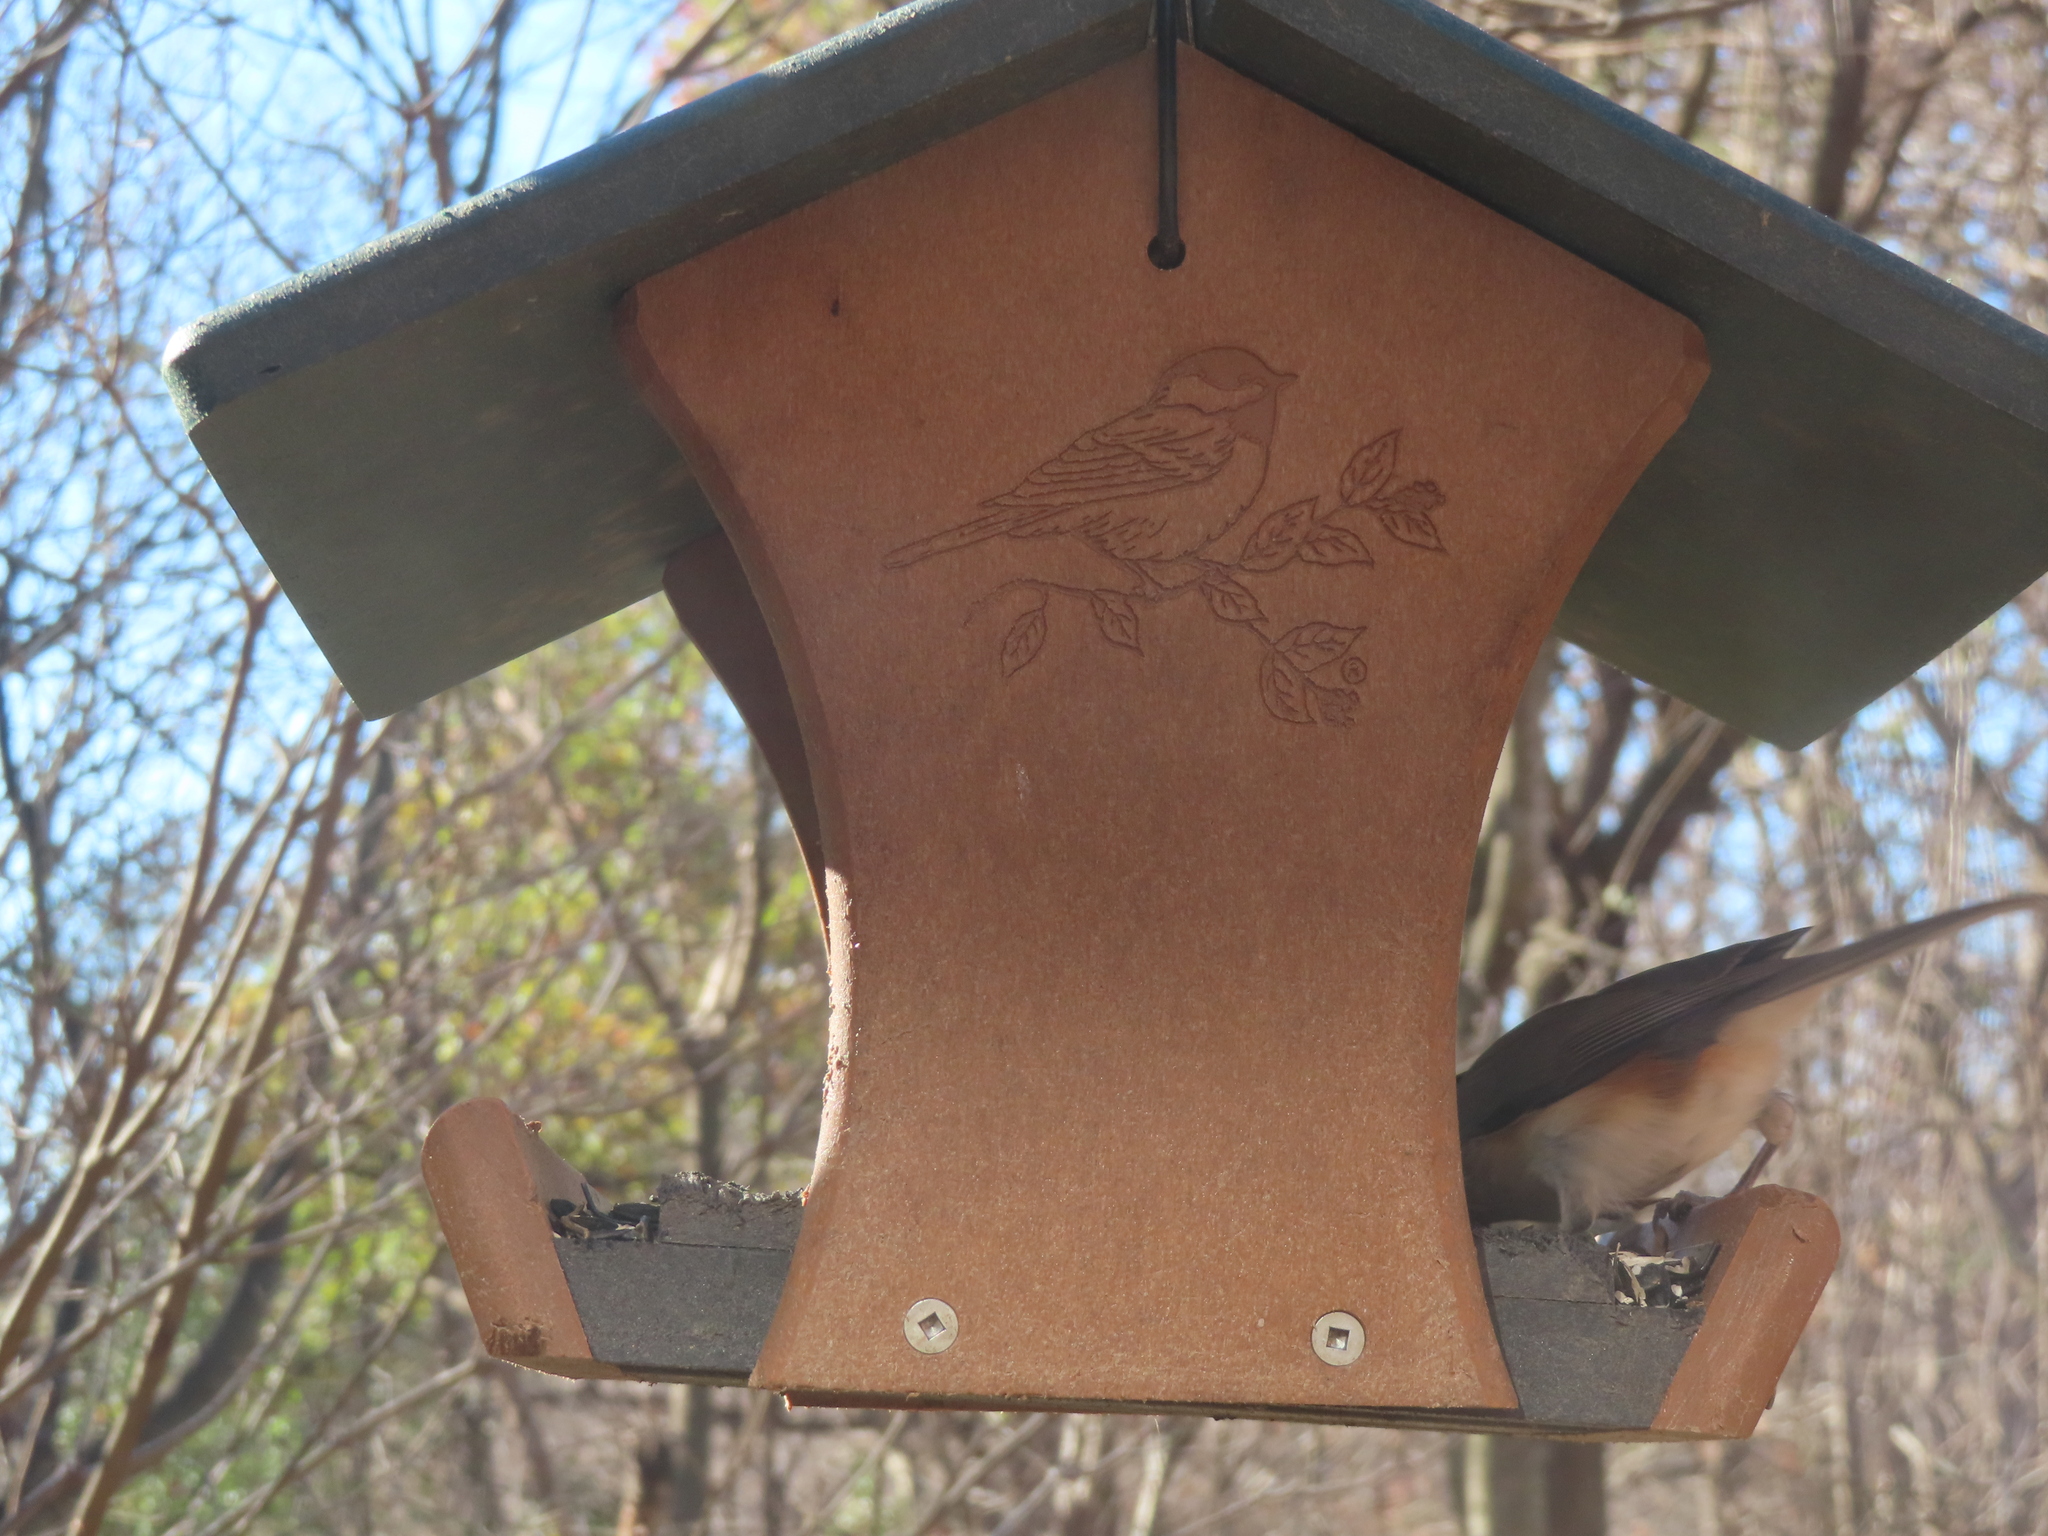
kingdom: Animalia
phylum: Chordata
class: Aves
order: Passeriformes
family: Paridae
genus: Baeolophus
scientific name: Baeolophus bicolor
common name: Tufted titmouse
